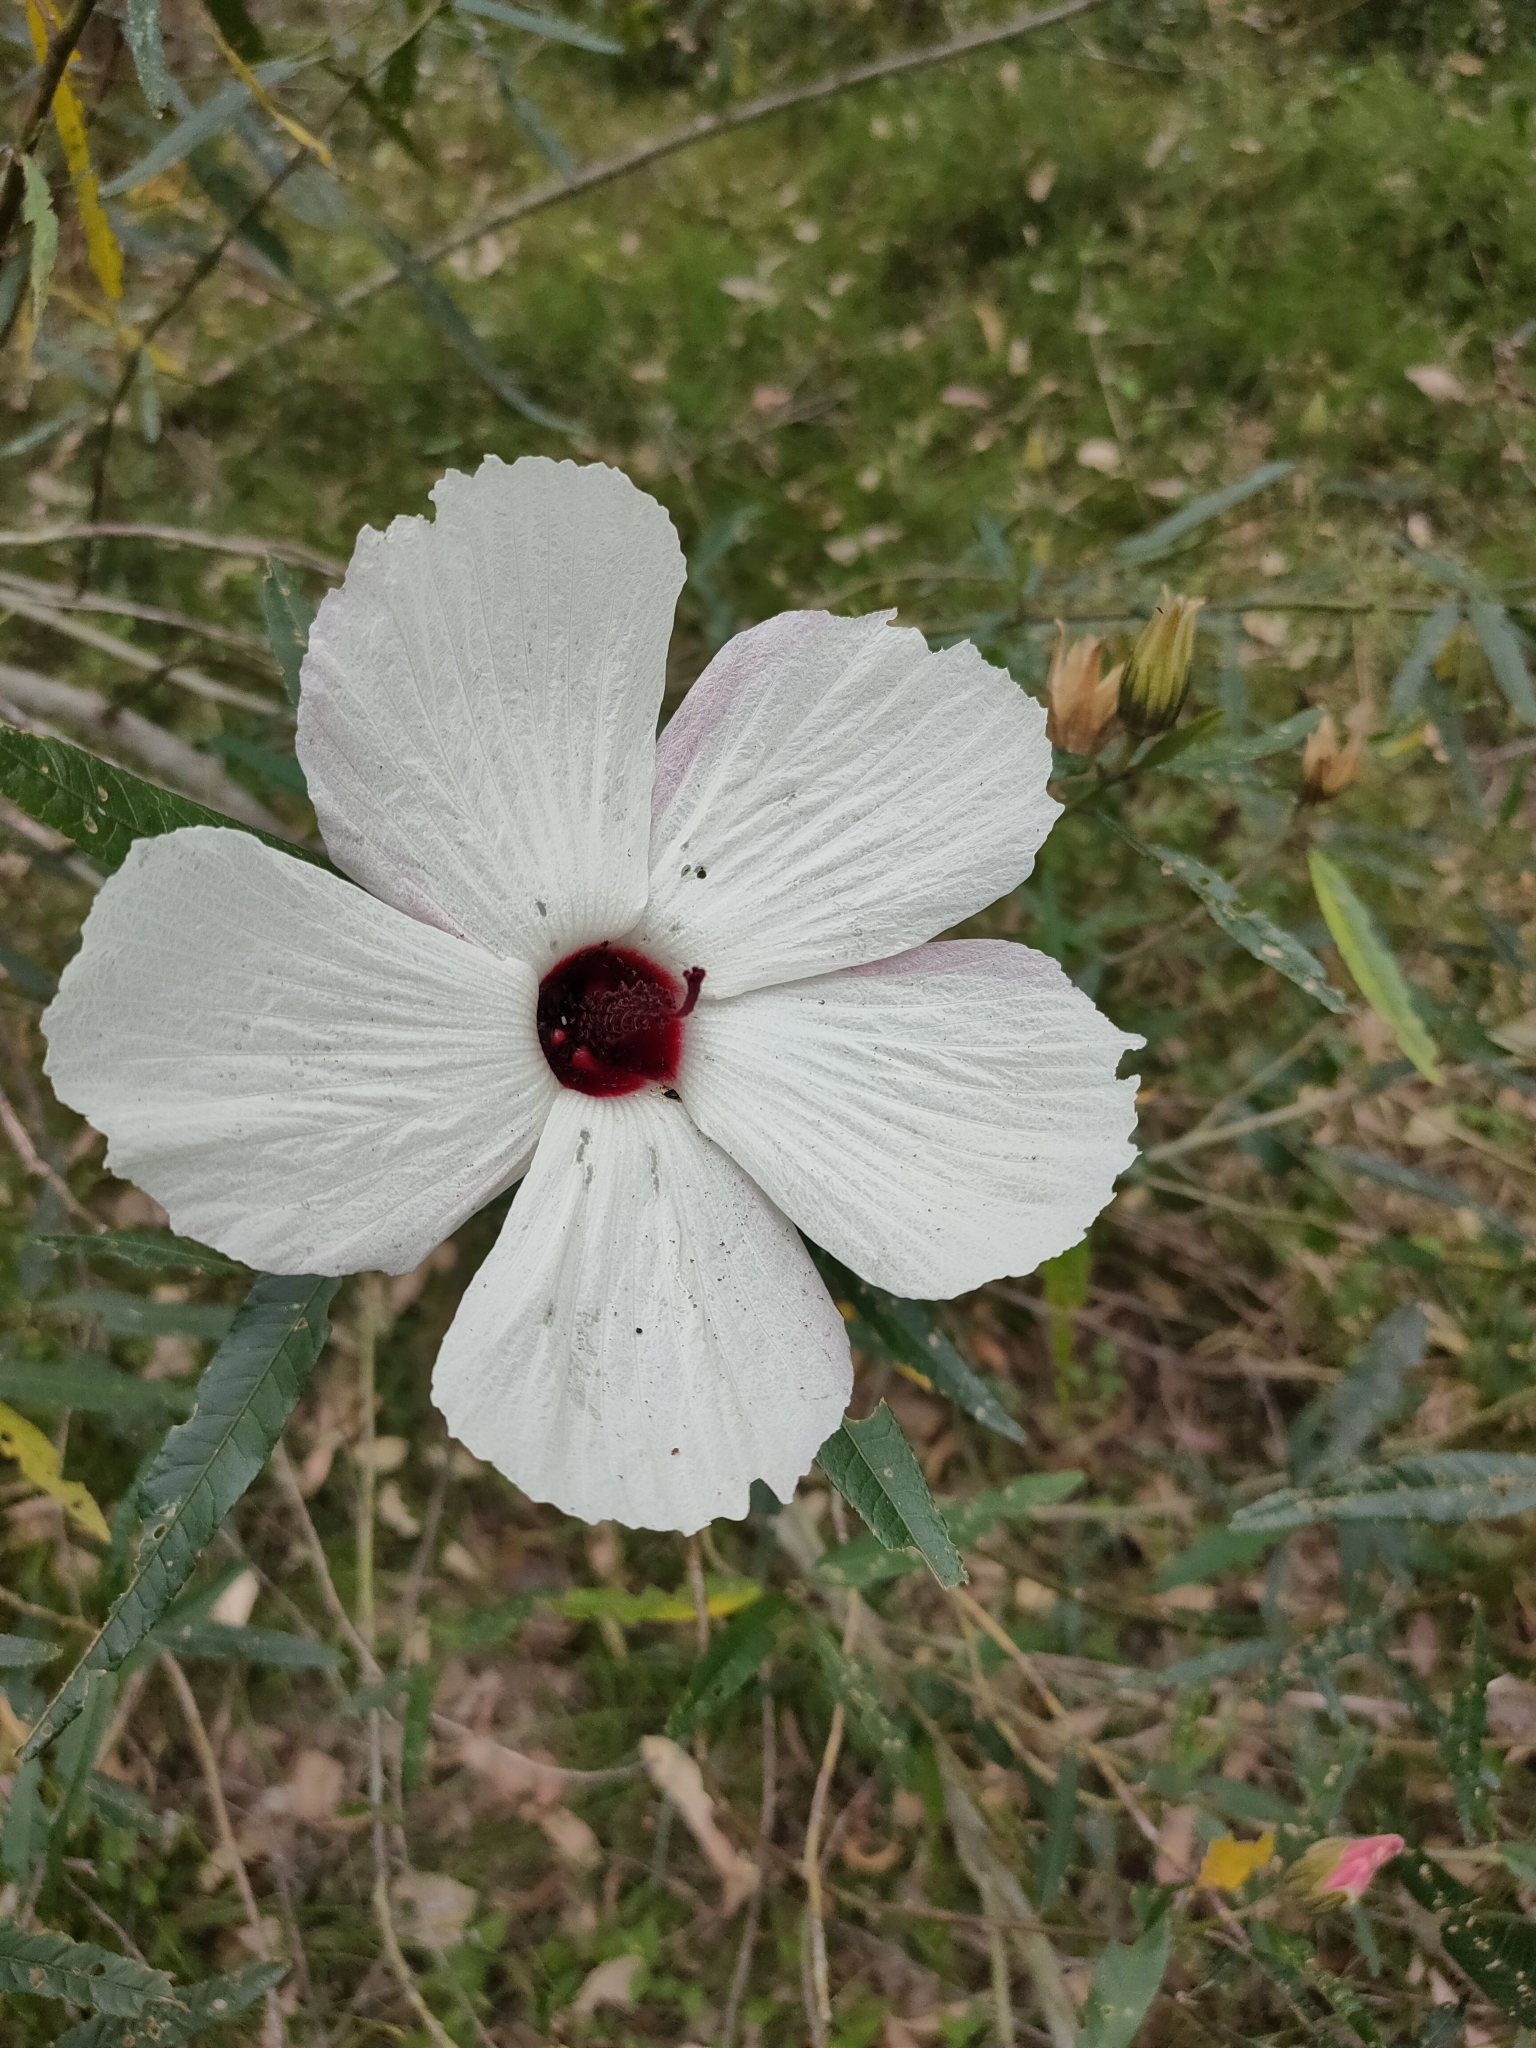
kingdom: Plantae
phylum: Tracheophyta
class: Magnoliopsida
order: Malvales
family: Malvaceae
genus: Hibiscus
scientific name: Hibiscus heterophyllus
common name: Queensland-sorrel
